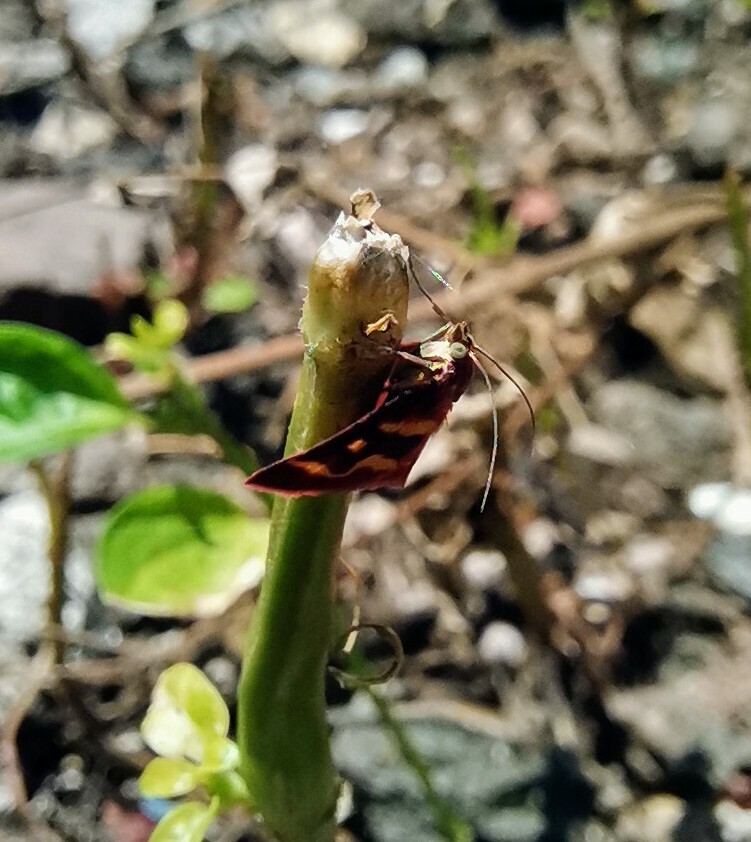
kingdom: Animalia
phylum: Arthropoda
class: Insecta
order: Lepidoptera
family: Crambidae
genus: Pyrausta
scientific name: Pyrausta tyralis
